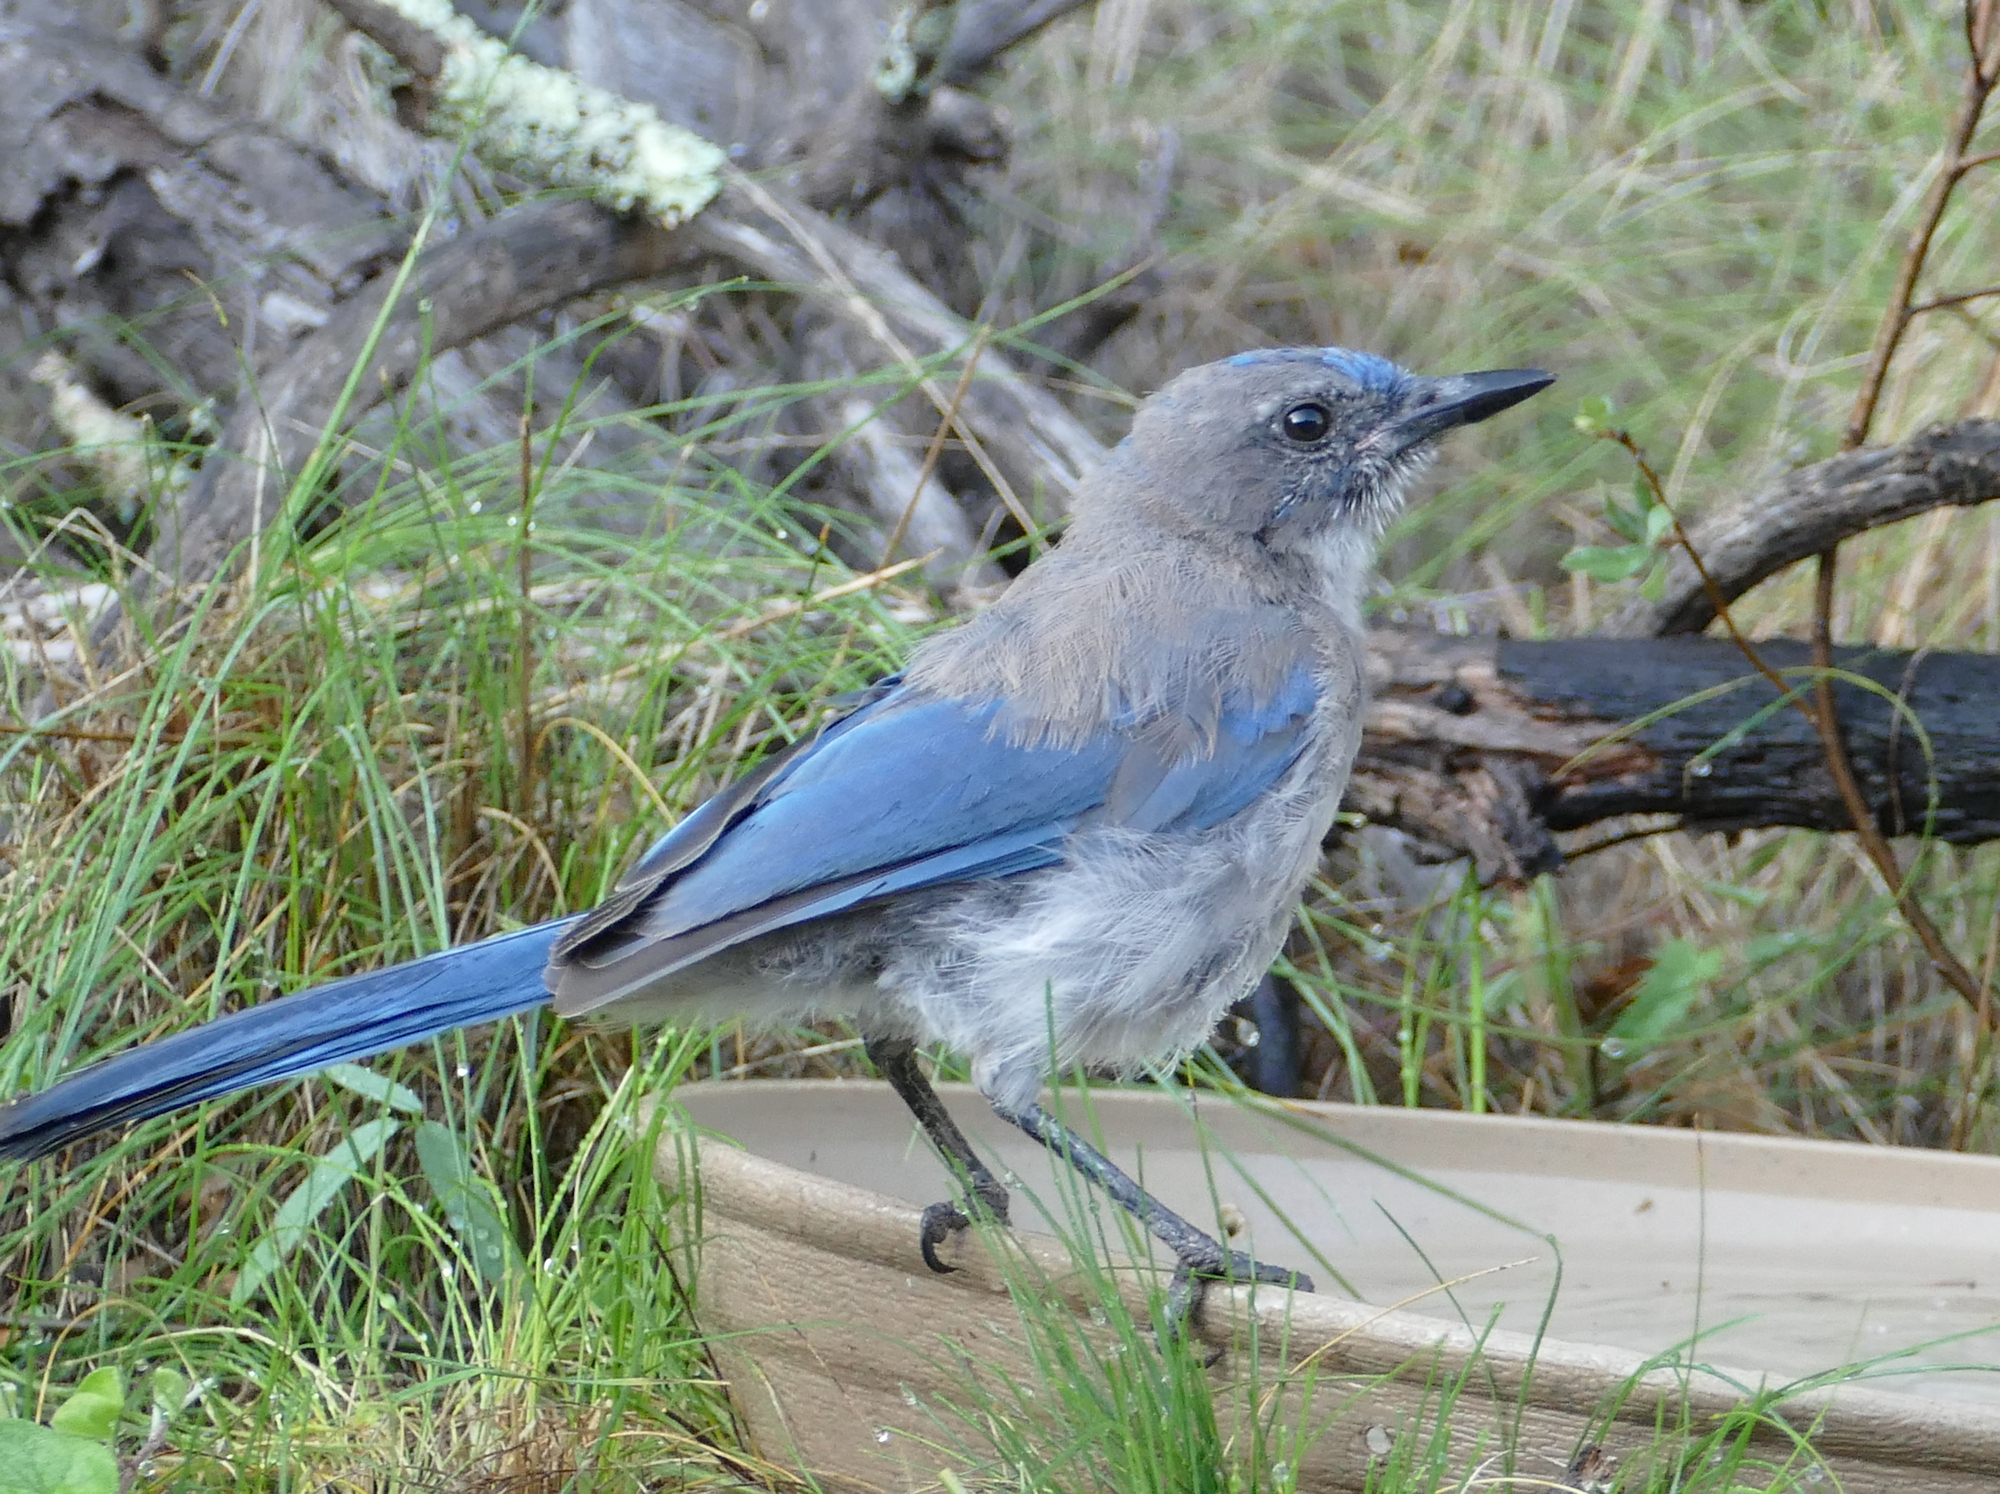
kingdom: Animalia
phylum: Chordata
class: Aves
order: Passeriformes
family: Corvidae
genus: Aphelocoma
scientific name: Aphelocoma woodhouseii
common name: Woodhouse's scrub-jay
